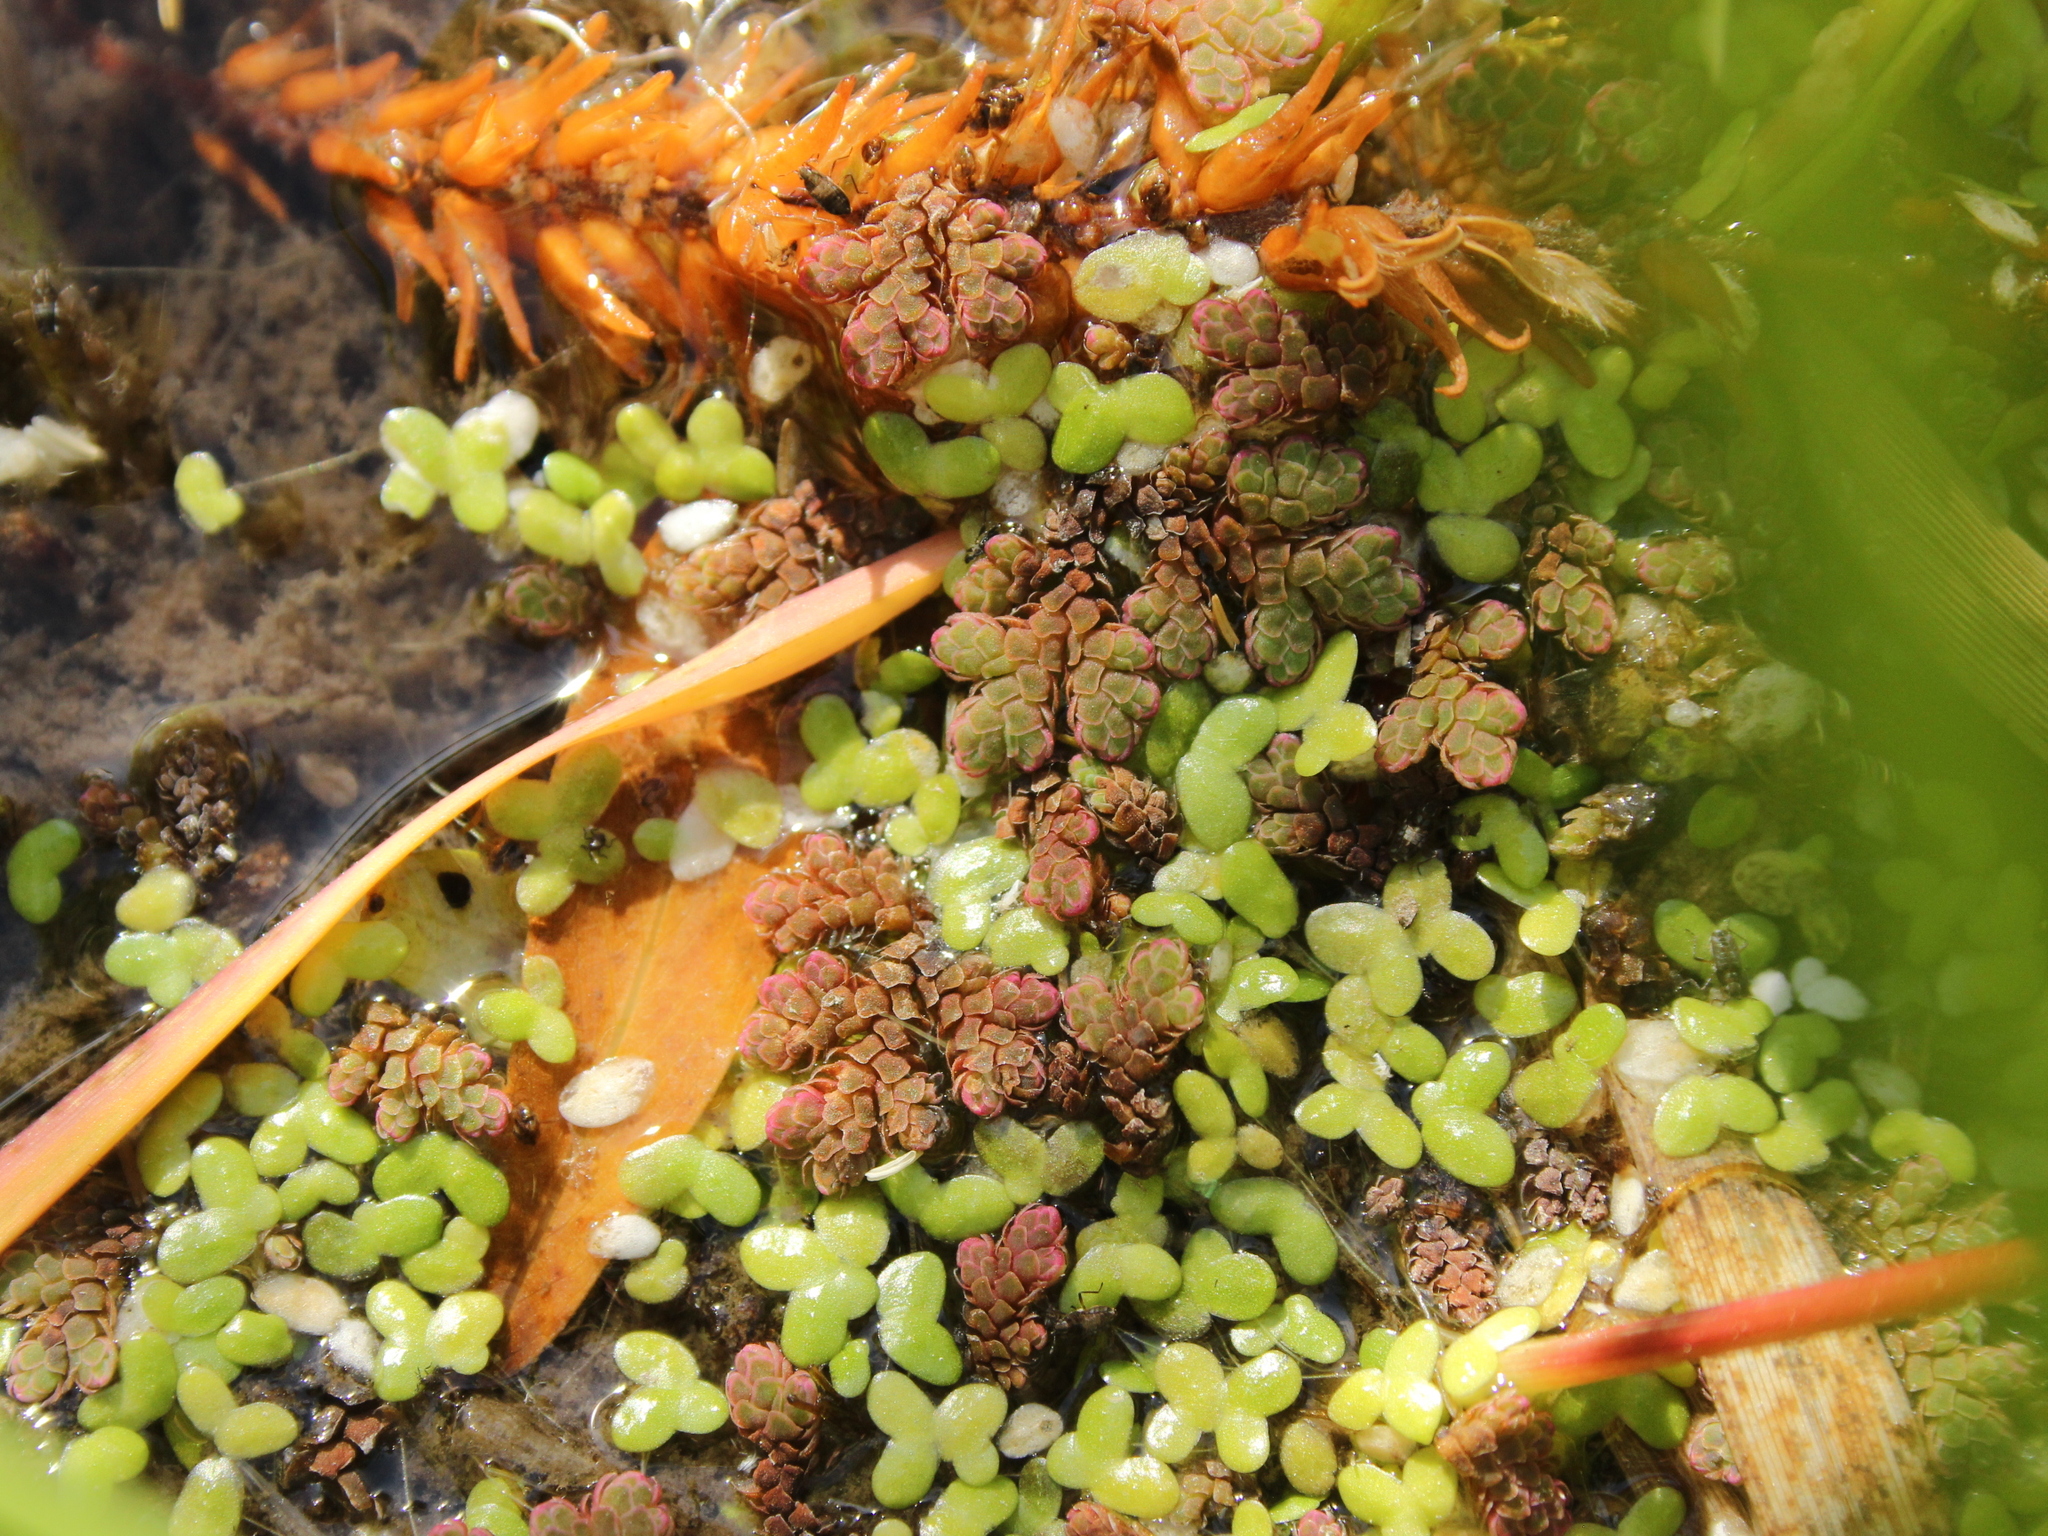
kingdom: Plantae
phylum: Tracheophyta
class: Polypodiopsida
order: Salviniales
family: Salviniaceae
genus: Azolla
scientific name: Azolla rubra
